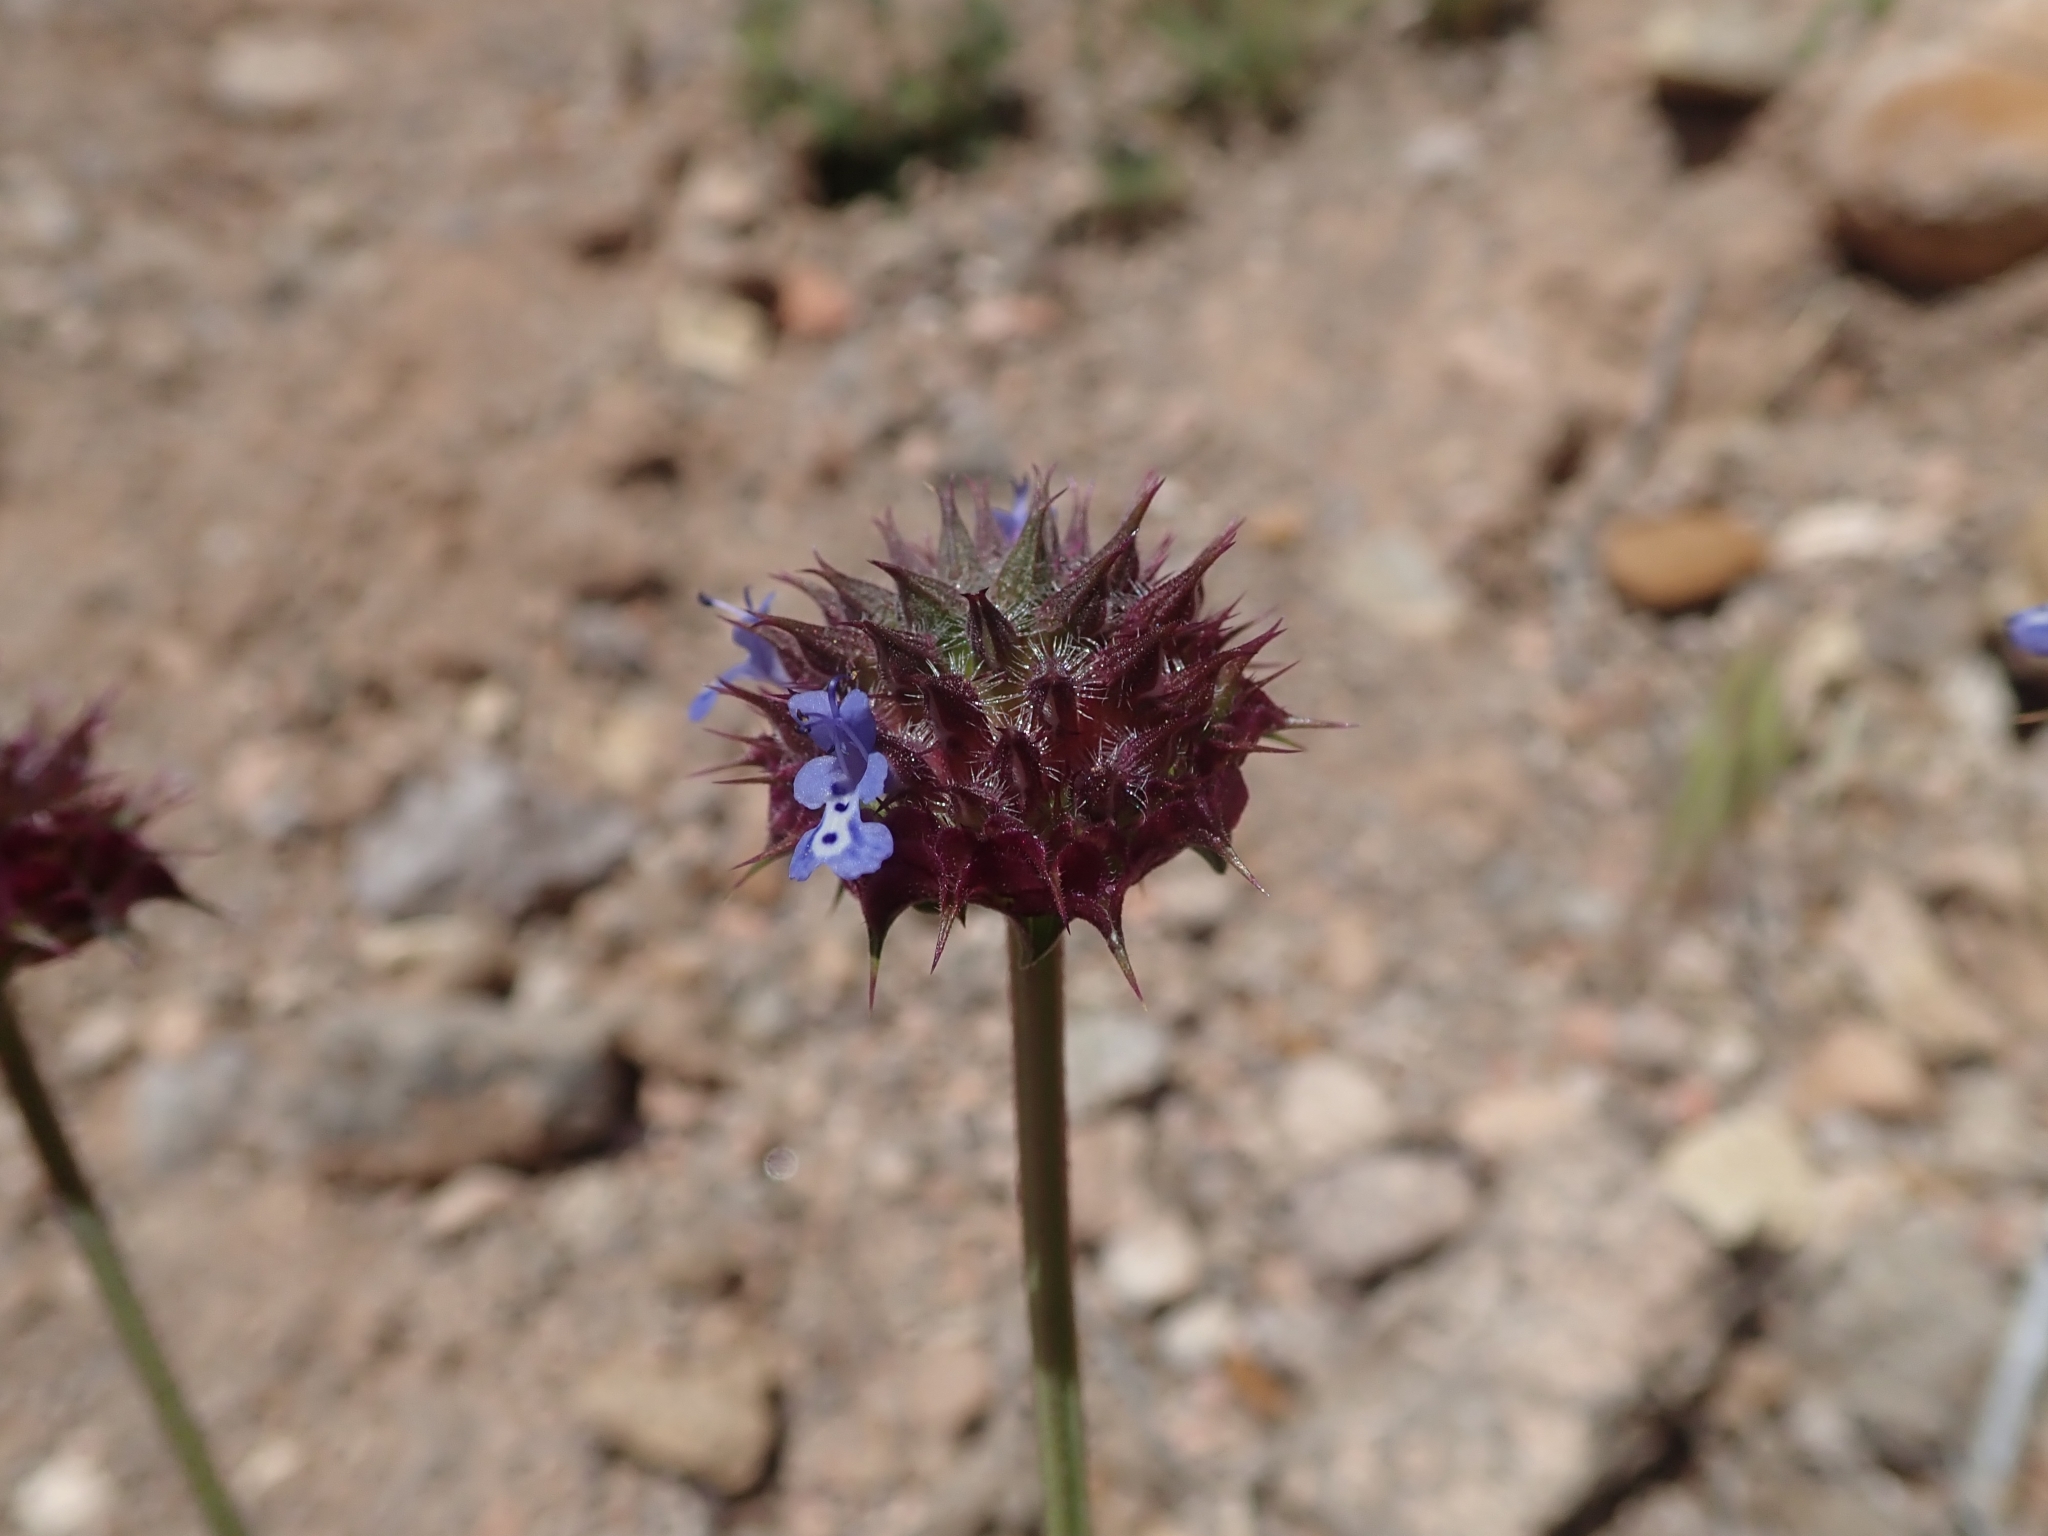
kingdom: Plantae
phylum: Tracheophyta
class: Magnoliopsida
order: Lamiales
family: Lamiaceae
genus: Salvia
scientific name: Salvia columbariae
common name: Chia
